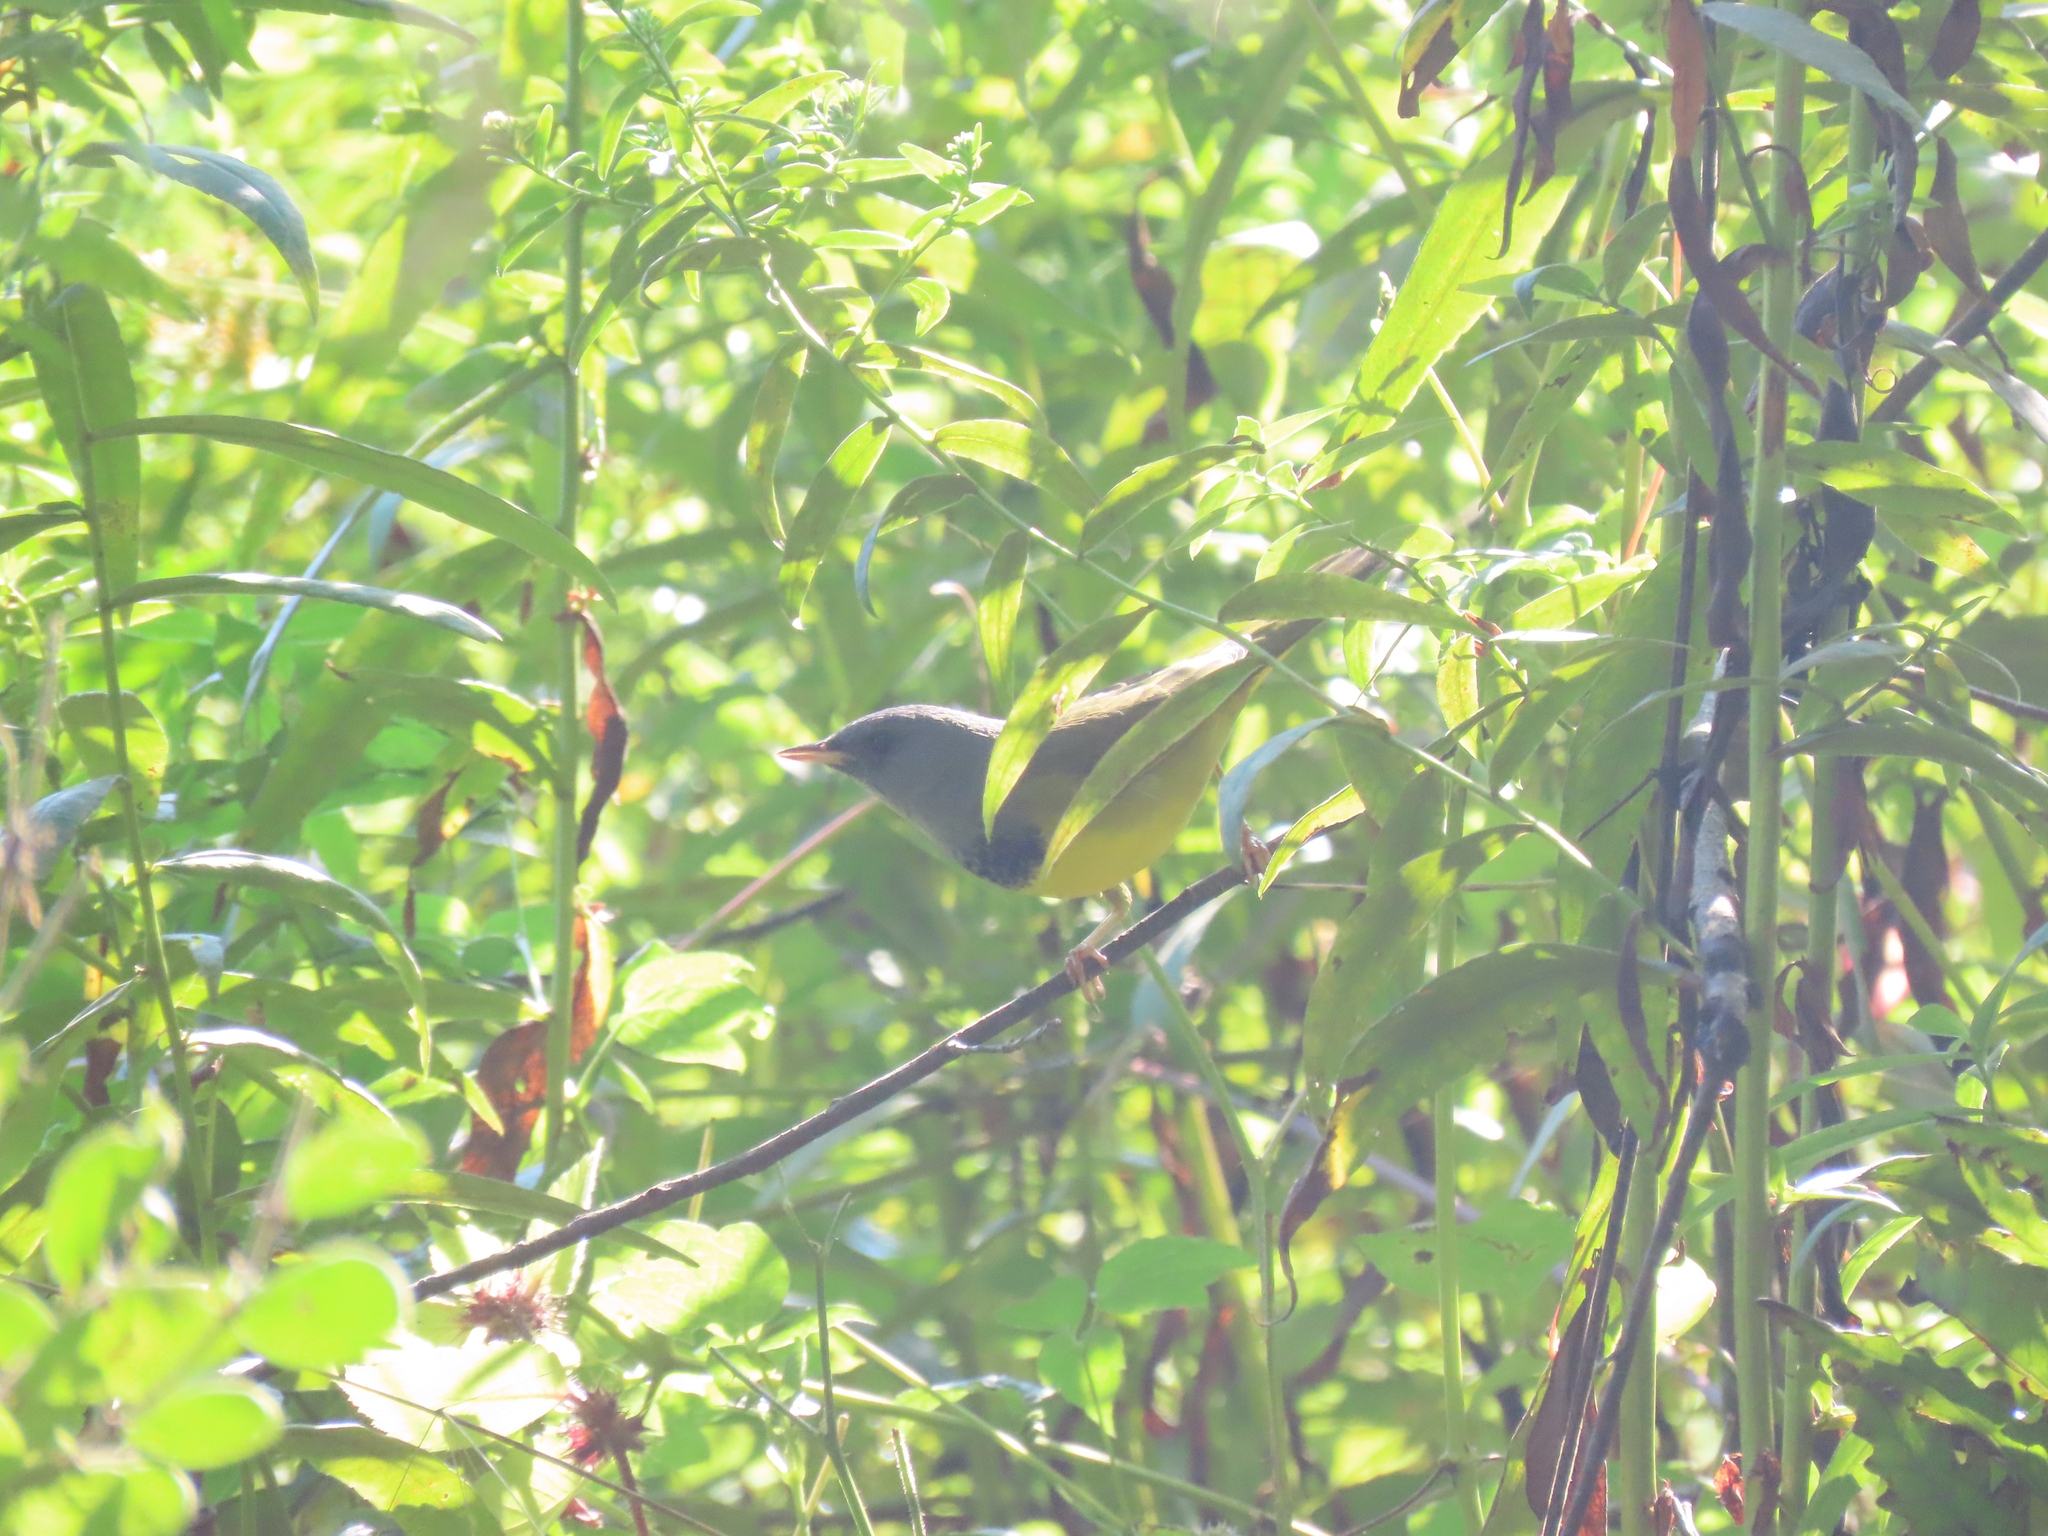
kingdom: Animalia
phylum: Chordata
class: Aves
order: Passeriformes
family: Parulidae
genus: Geothlypis
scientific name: Geothlypis philadelphia
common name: Mourning warbler
